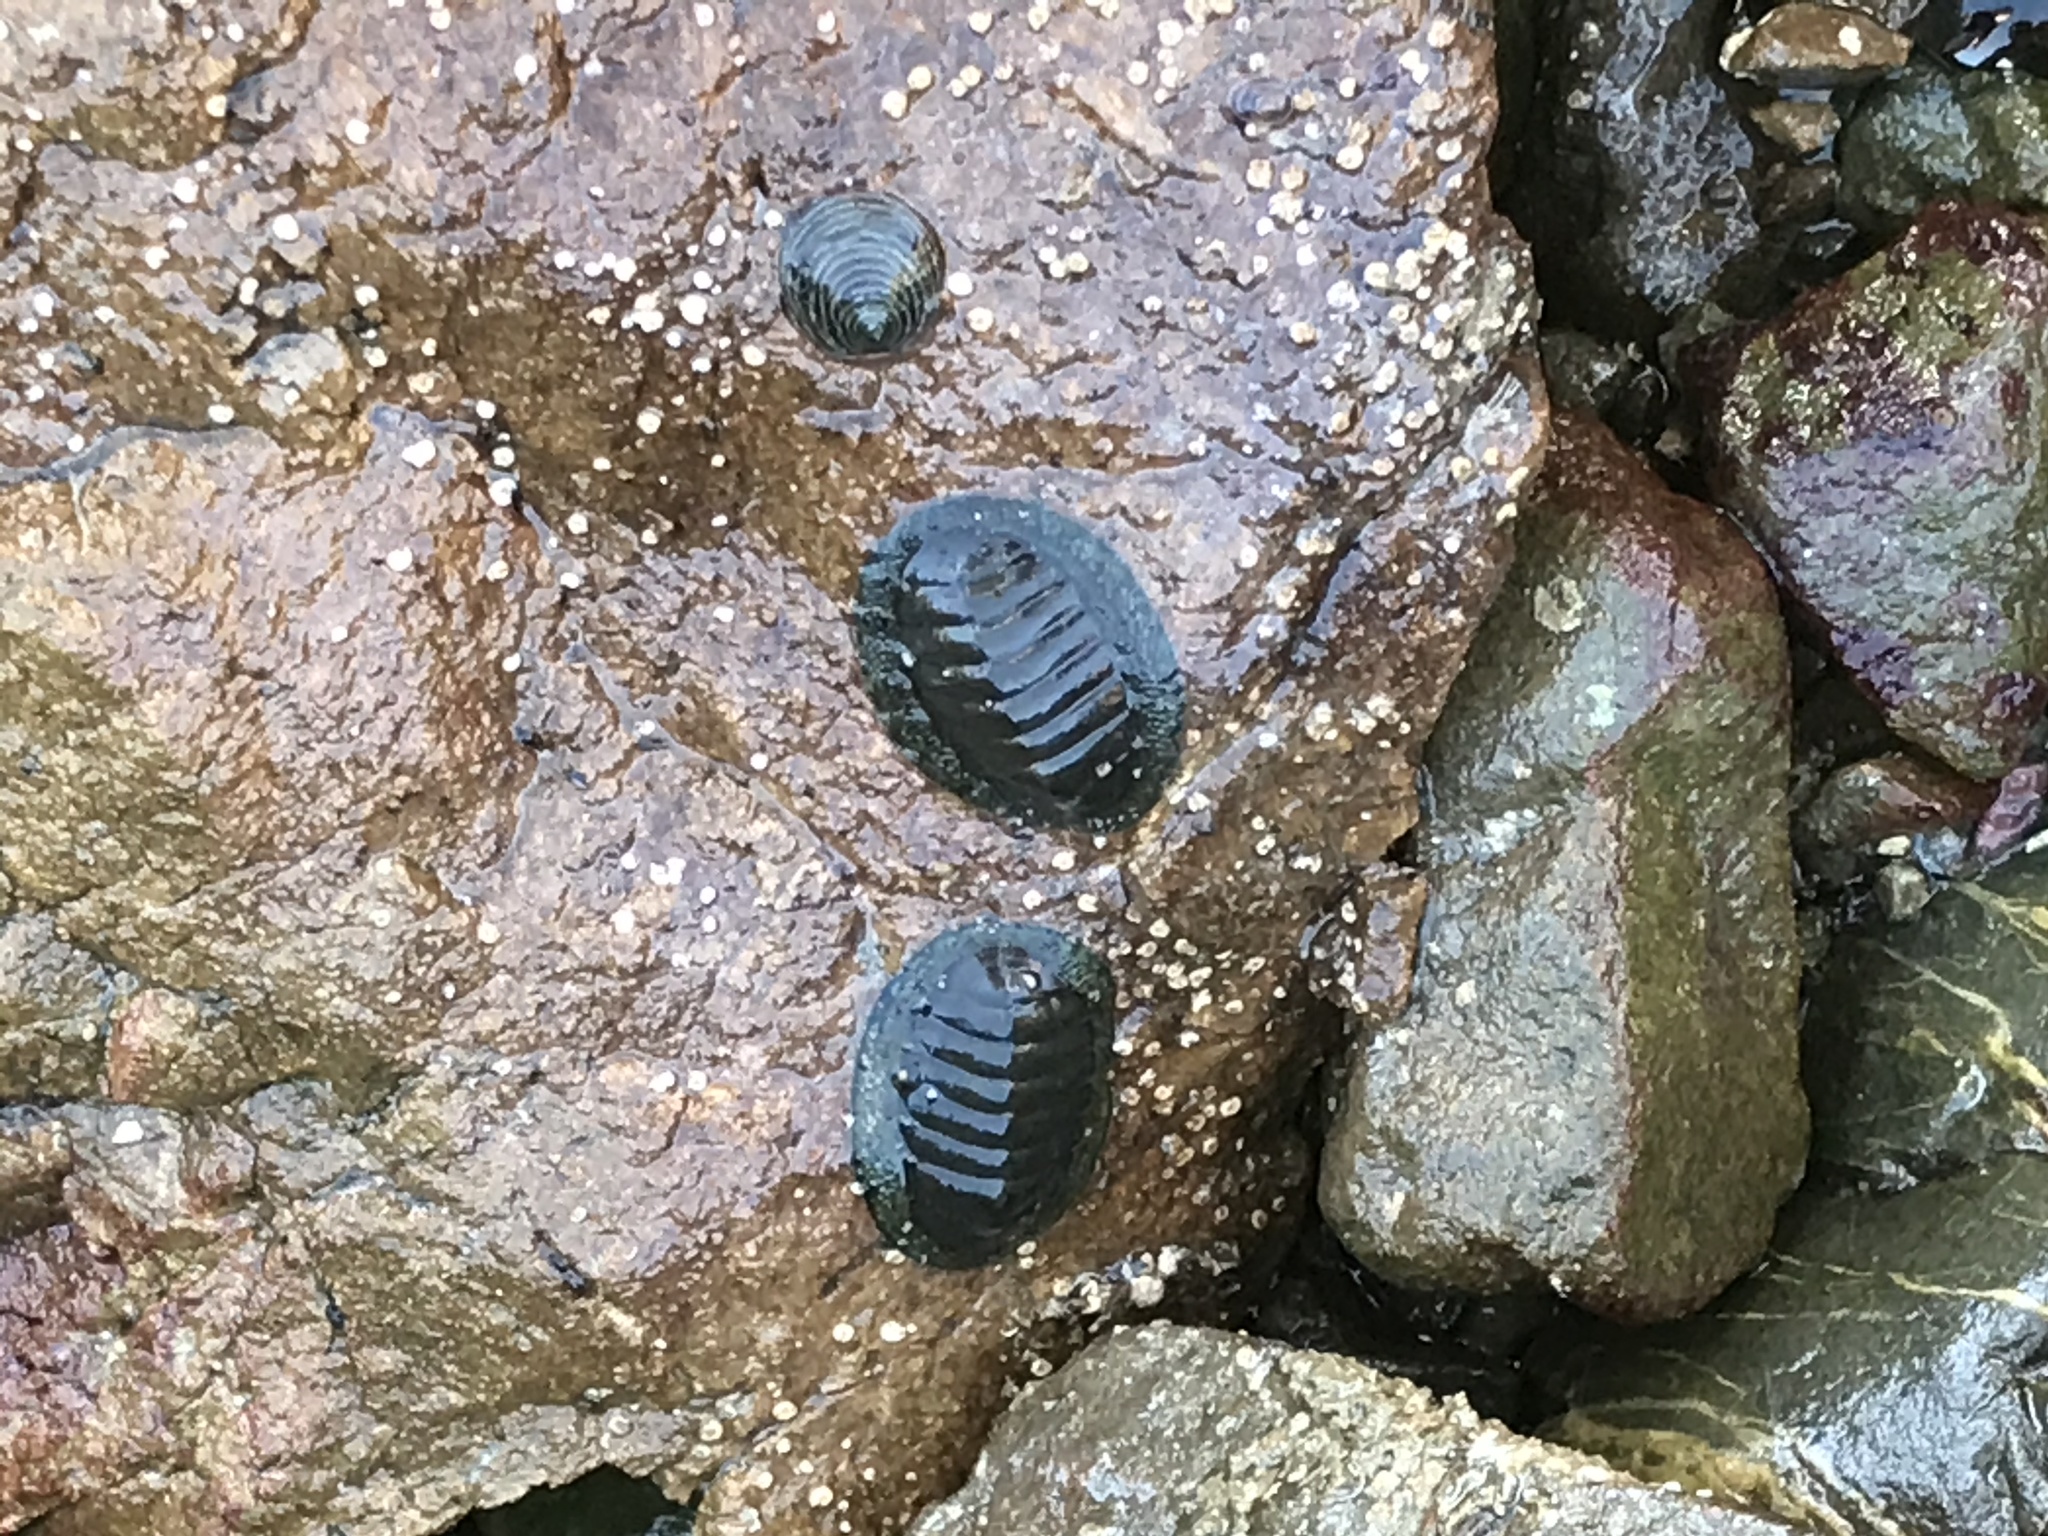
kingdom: Animalia
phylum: Mollusca
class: Polyplacophora
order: Chitonida
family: Chitonidae
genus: Chiton
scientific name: Chiton glaucus
